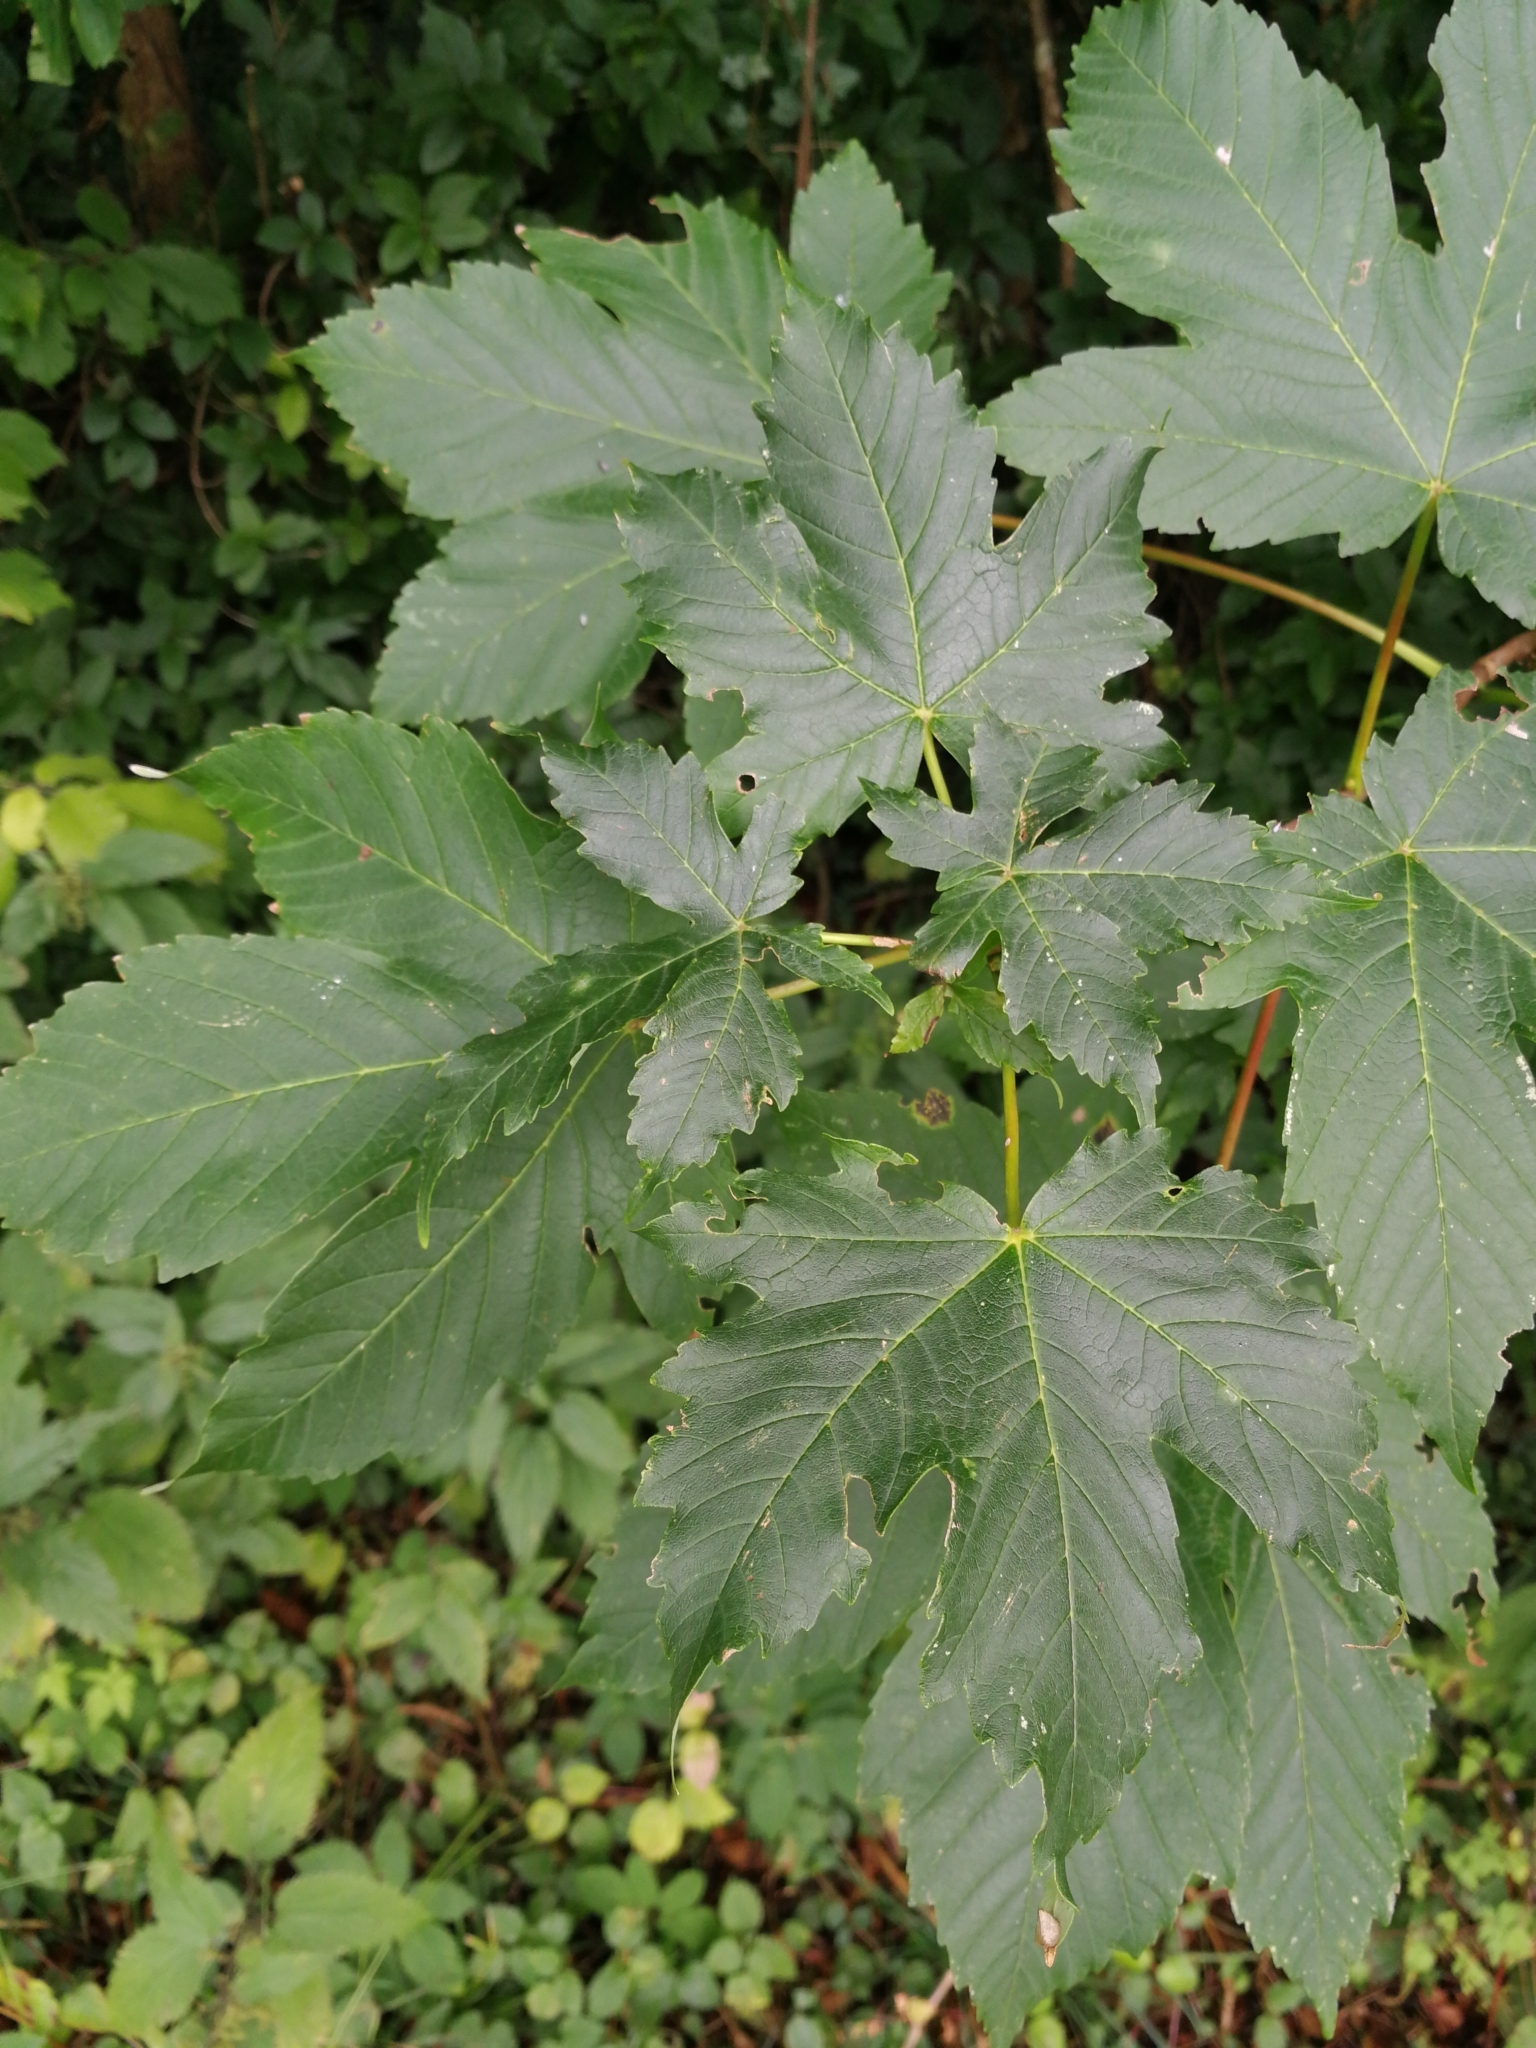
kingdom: Plantae
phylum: Tracheophyta
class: Magnoliopsida
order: Sapindales
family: Sapindaceae
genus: Acer
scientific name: Acer pseudoplatanus
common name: Sycamore
